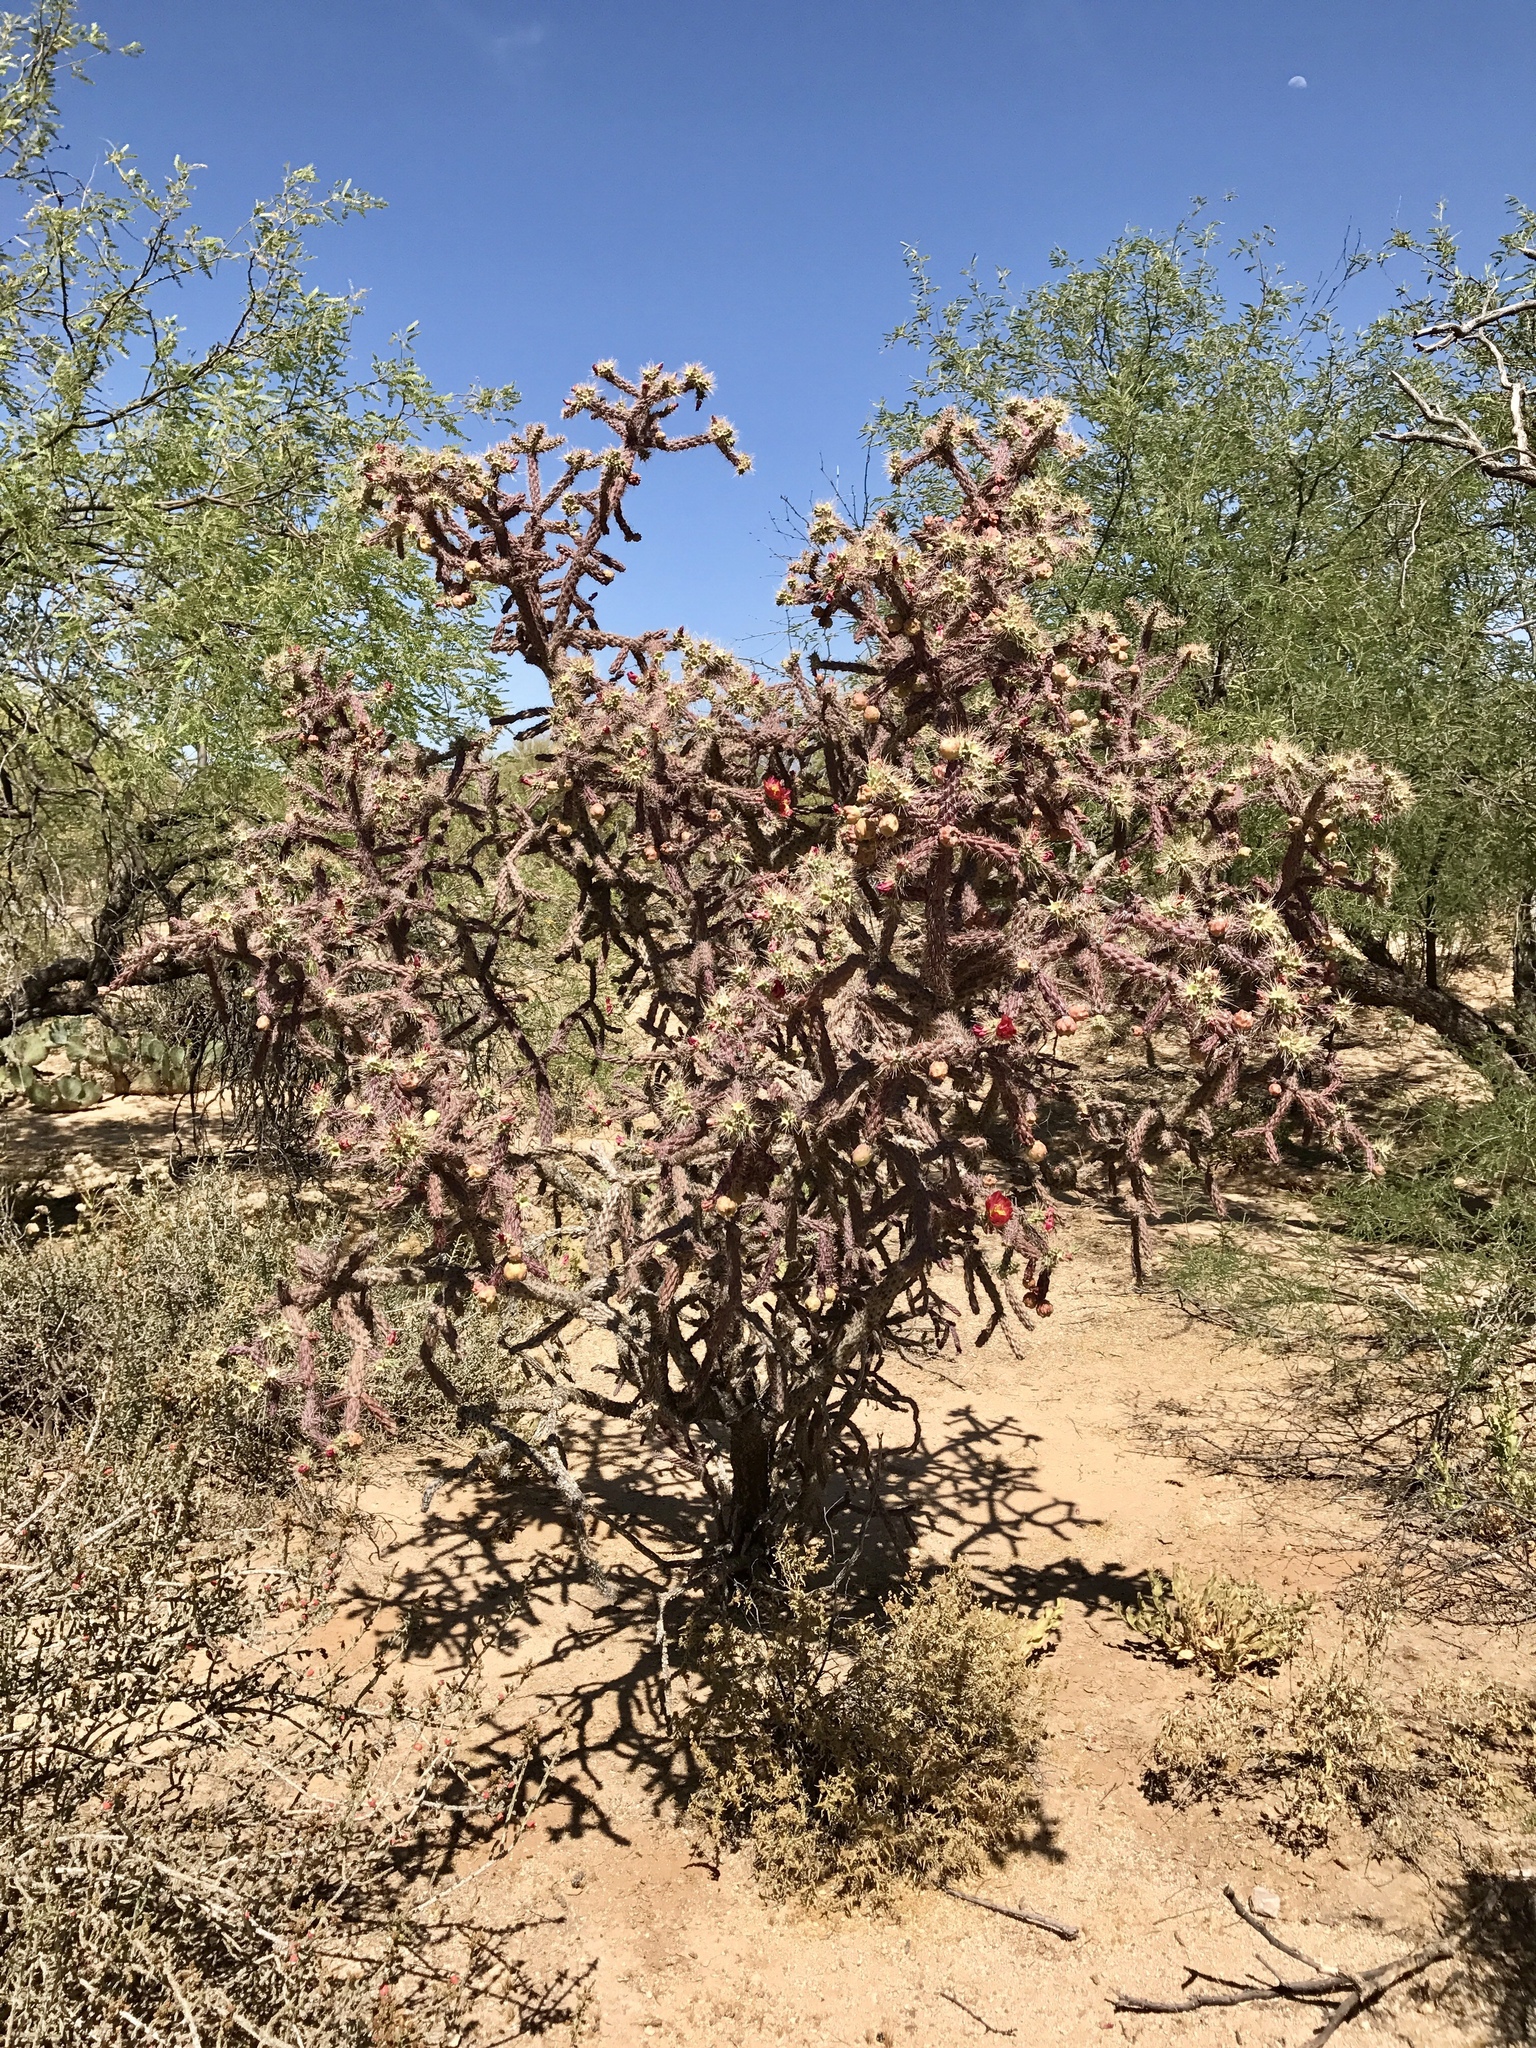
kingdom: Plantae
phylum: Tracheophyta
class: Magnoliopsida
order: Caryophyllales
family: Cactaceae
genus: Cylindropuntia
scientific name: Cylindropuntia thurberi
